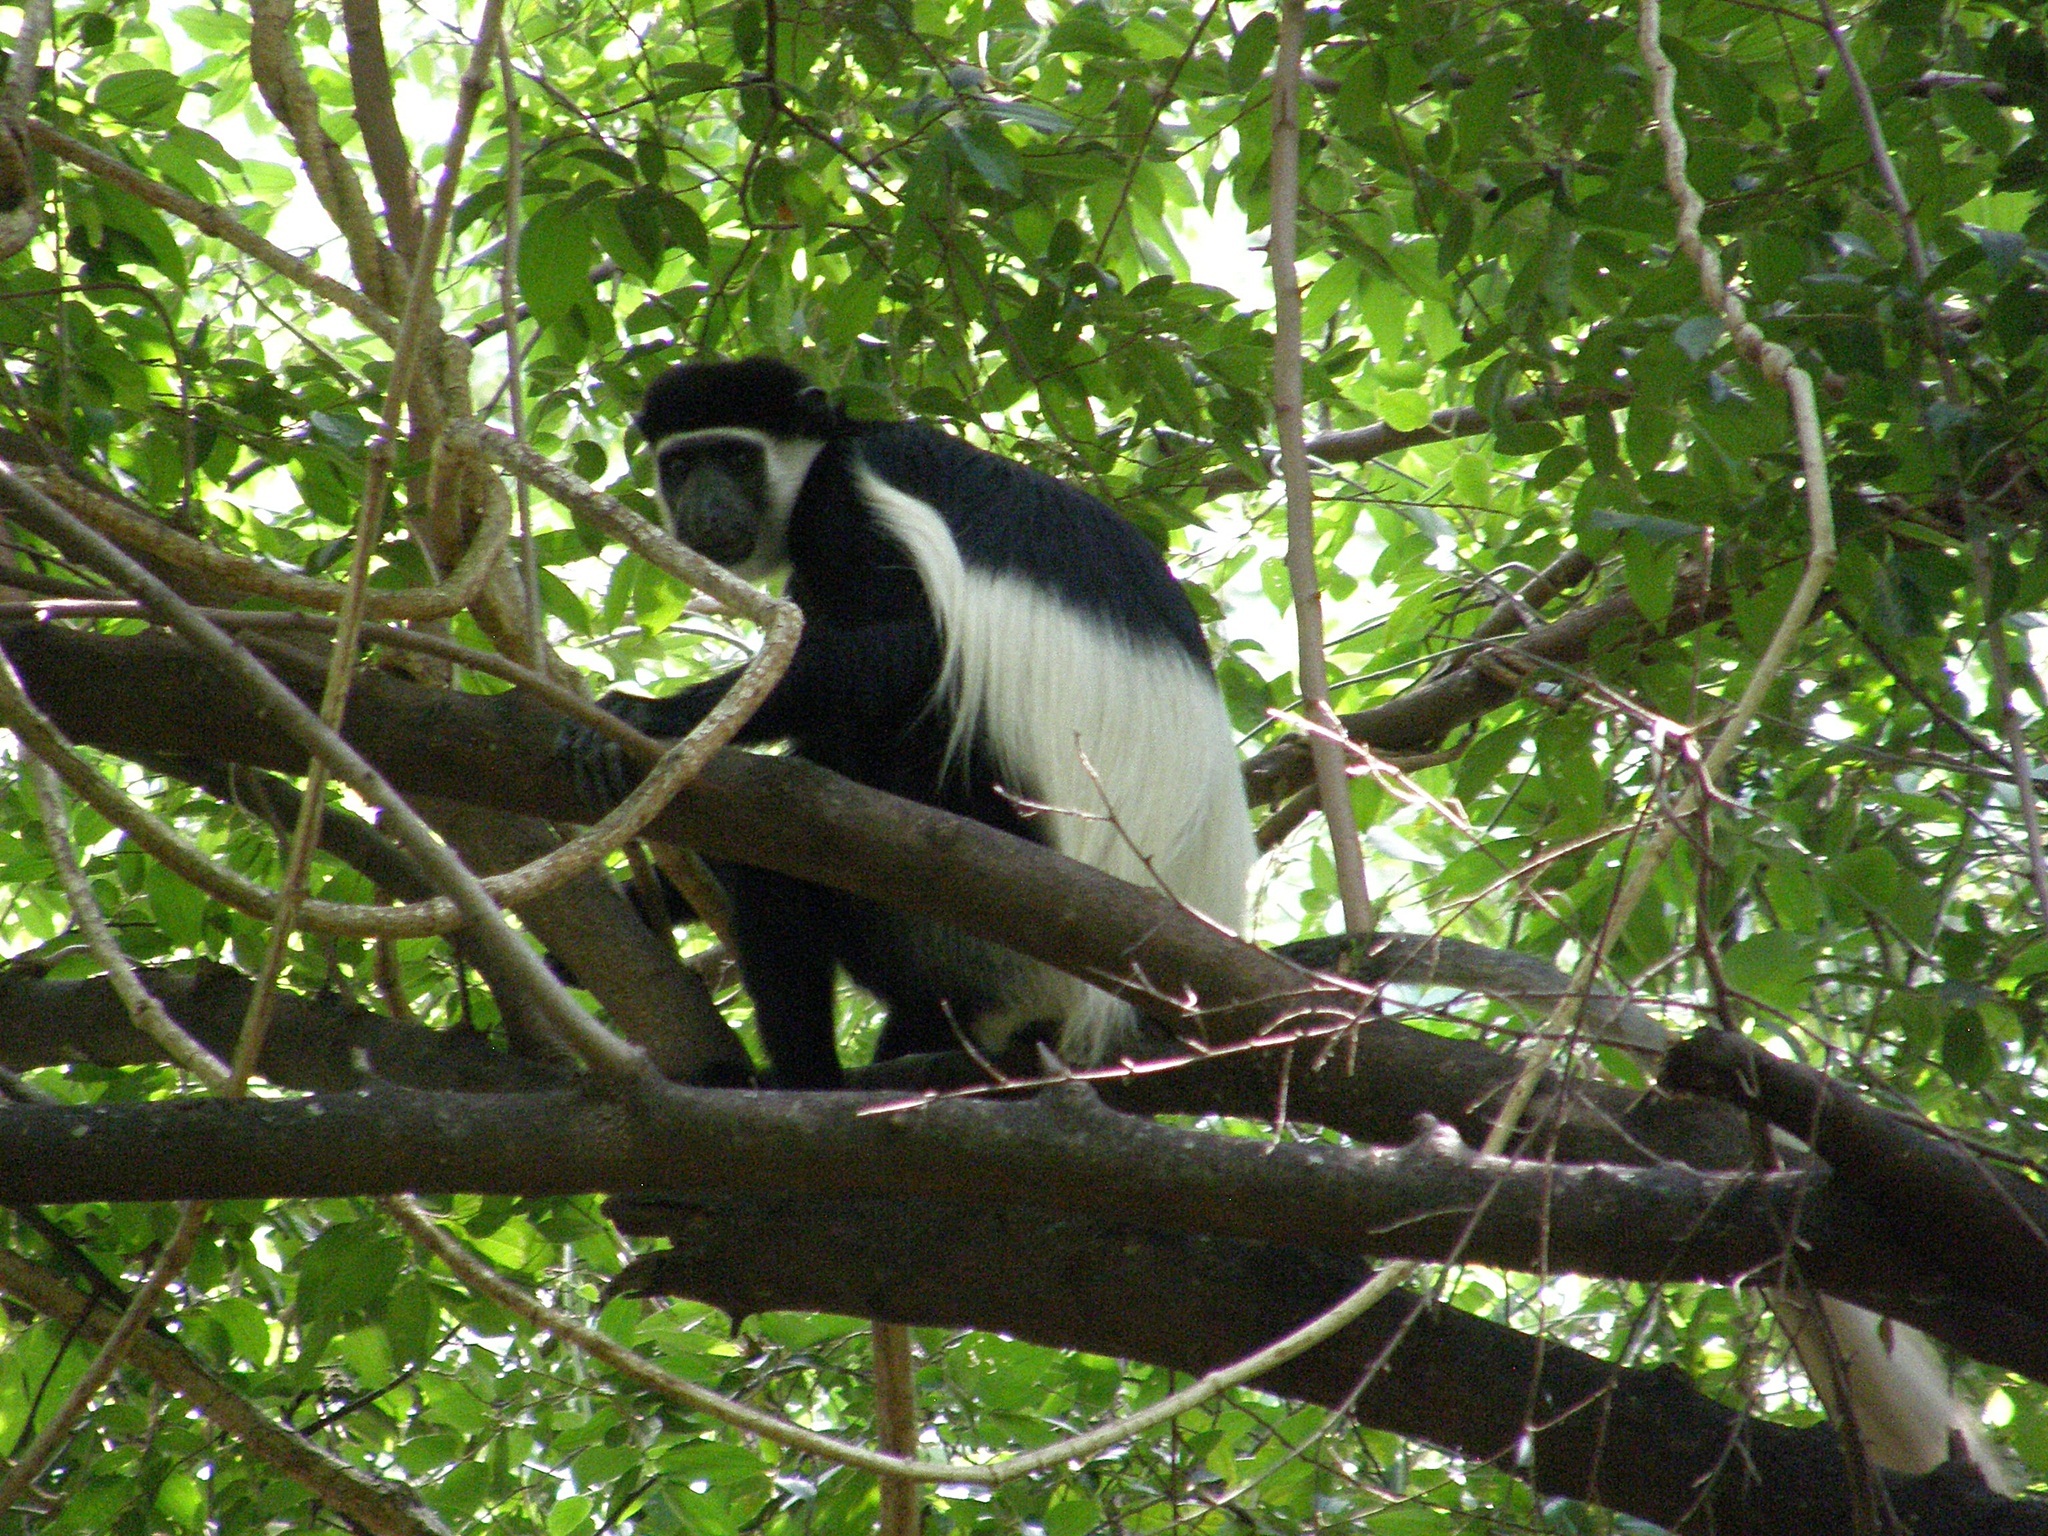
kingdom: Animalia
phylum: Chordata
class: Mammalia
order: Primates
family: Cercopithecidae
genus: Colobus
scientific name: Colobus guereza
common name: Mantled guereza
